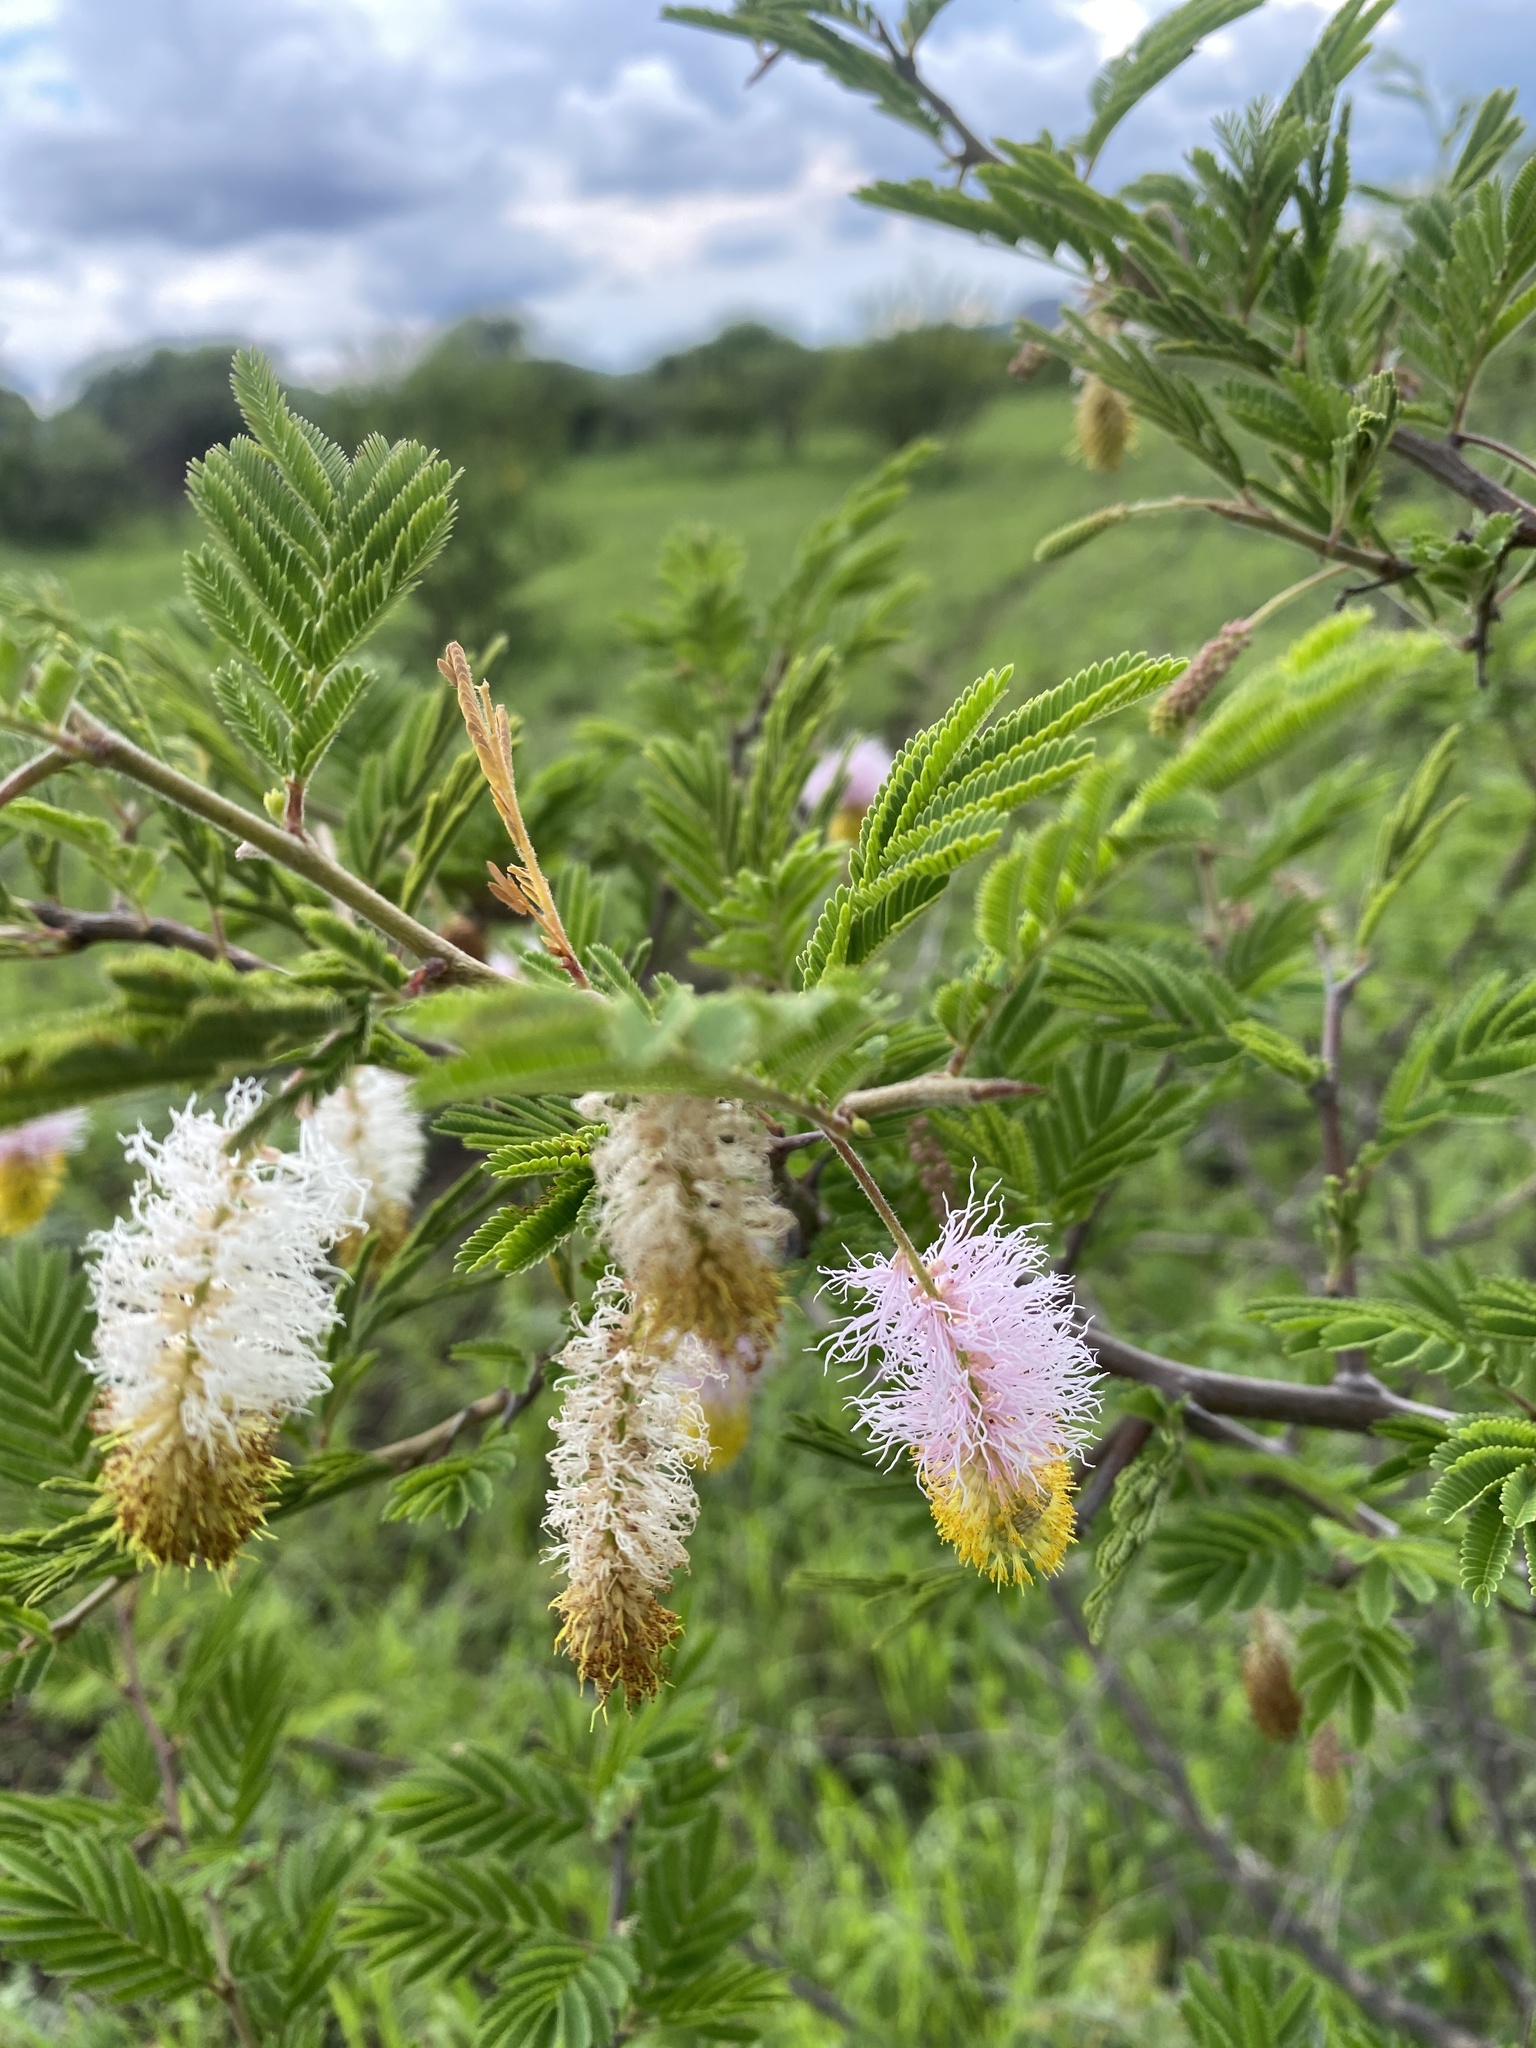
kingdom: Plantae
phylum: Tracheophyta
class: Magnoliopsida
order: Fabales
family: Fabaceae
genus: Dichrostachys
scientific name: Dichrostachys cinerea
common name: Sicklebush
